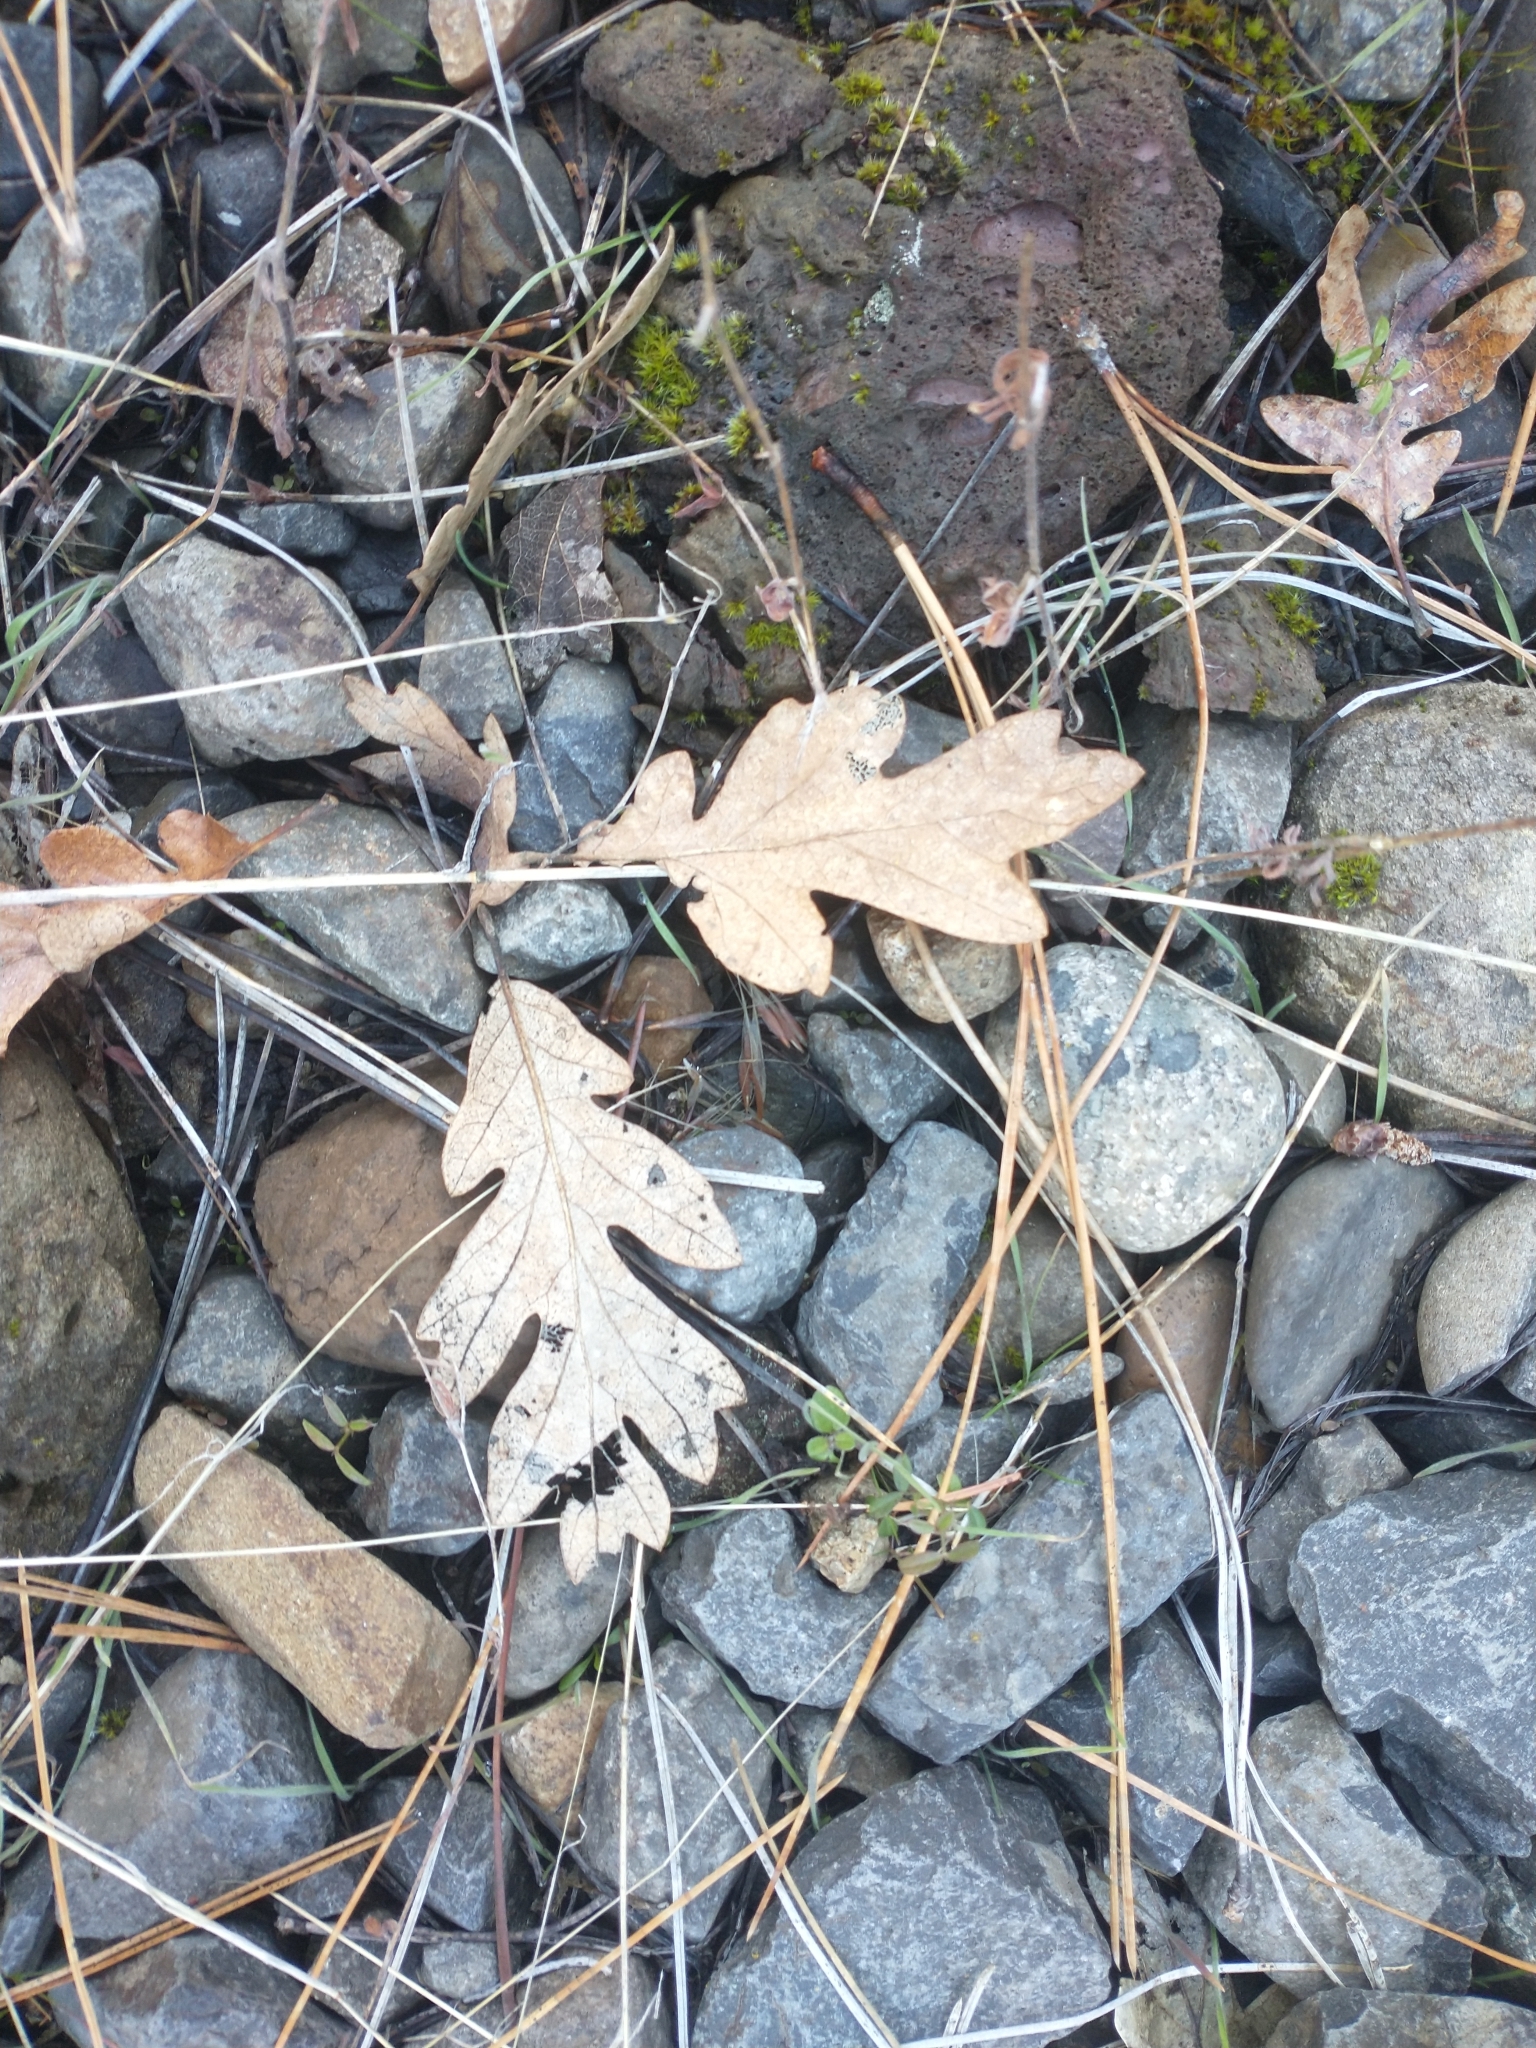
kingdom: Plantae
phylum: Tracheophyta
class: Magnoliopsida
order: Fagales
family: Fagaceae
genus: Quercus
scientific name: Quercus garryana
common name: Garry oak
